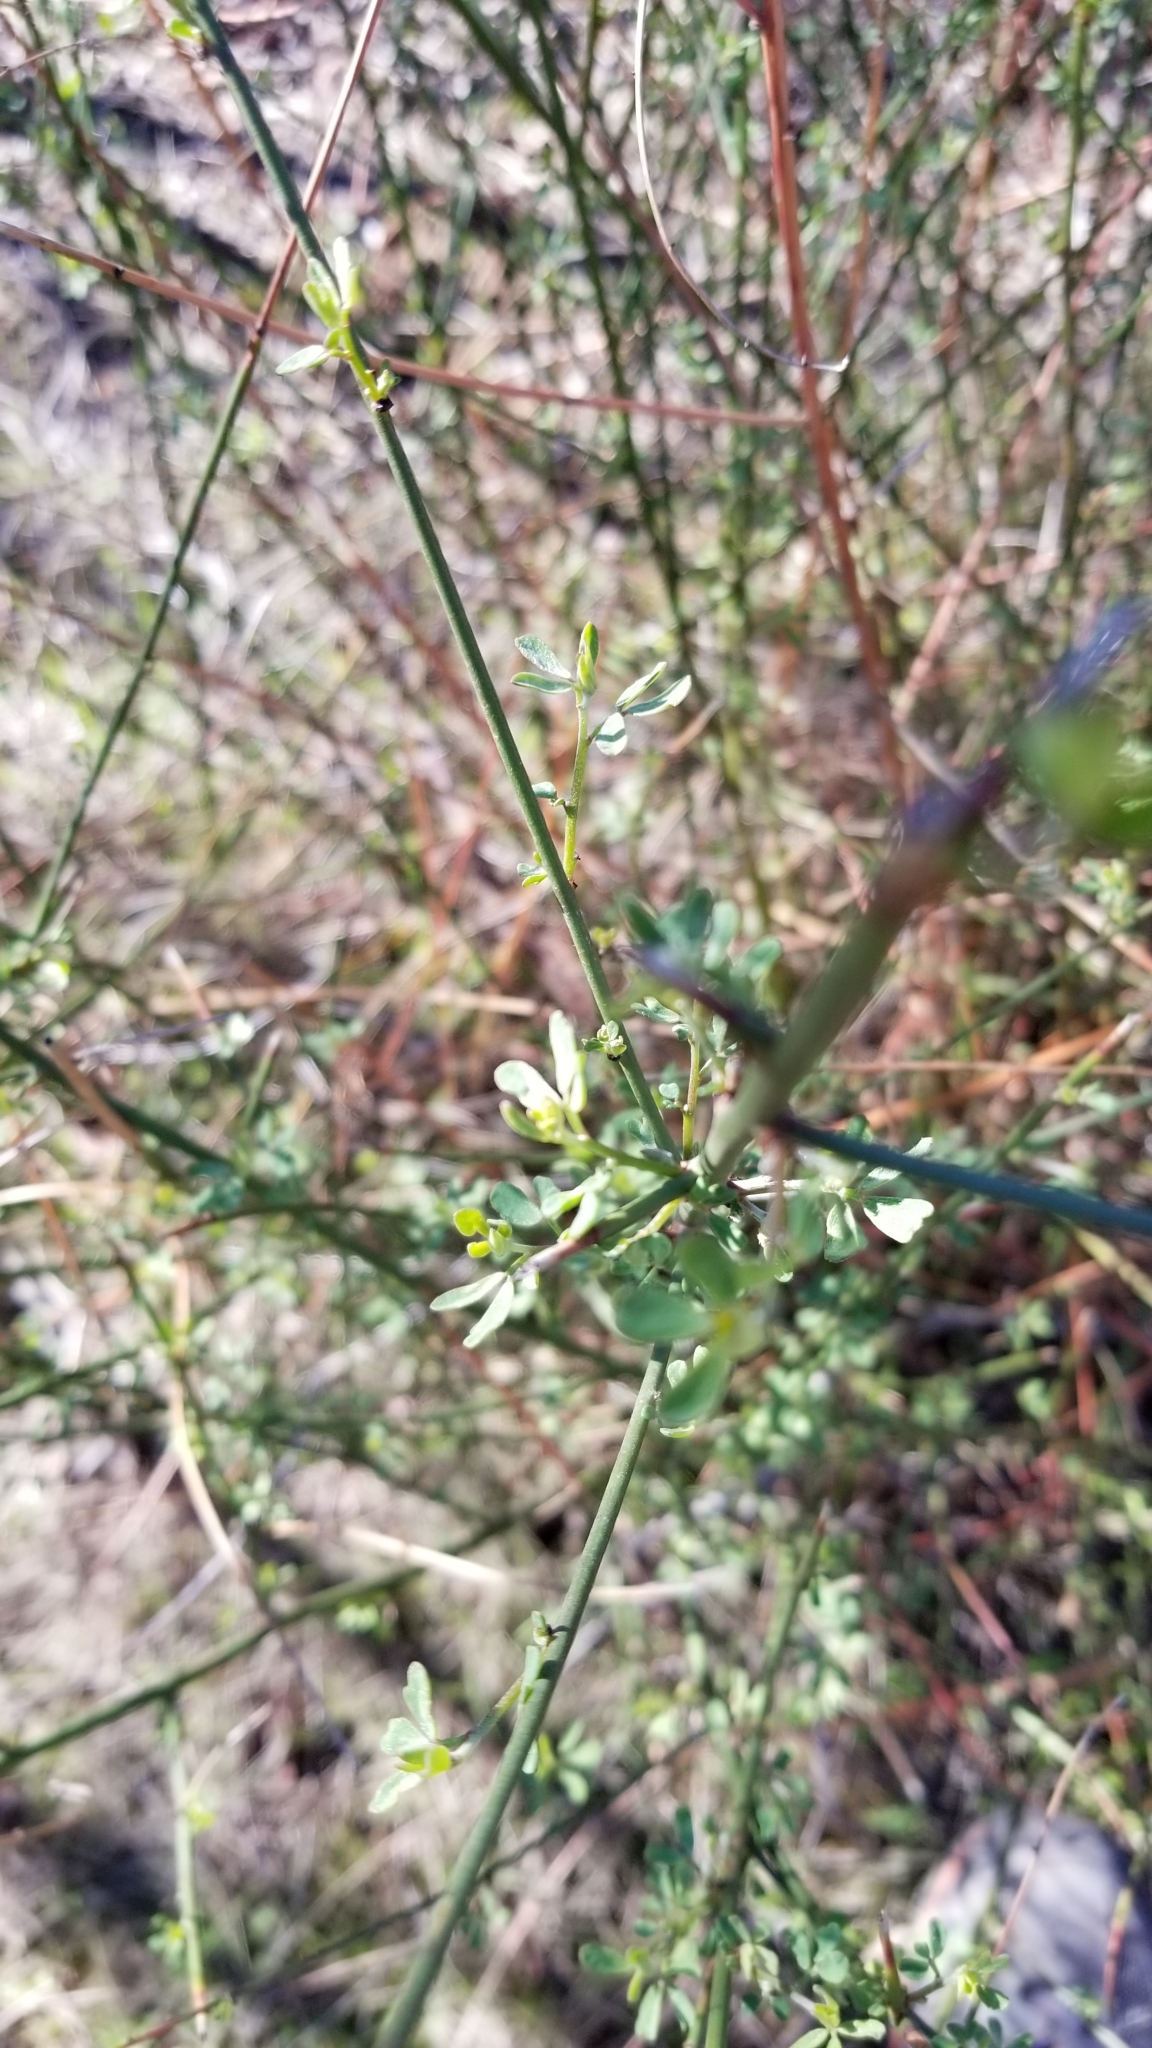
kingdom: Plantae
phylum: Tracheophyta
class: Magnoliopsida
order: Fabales
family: Fabaceae
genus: Acmispon
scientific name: Acmispon glaber
